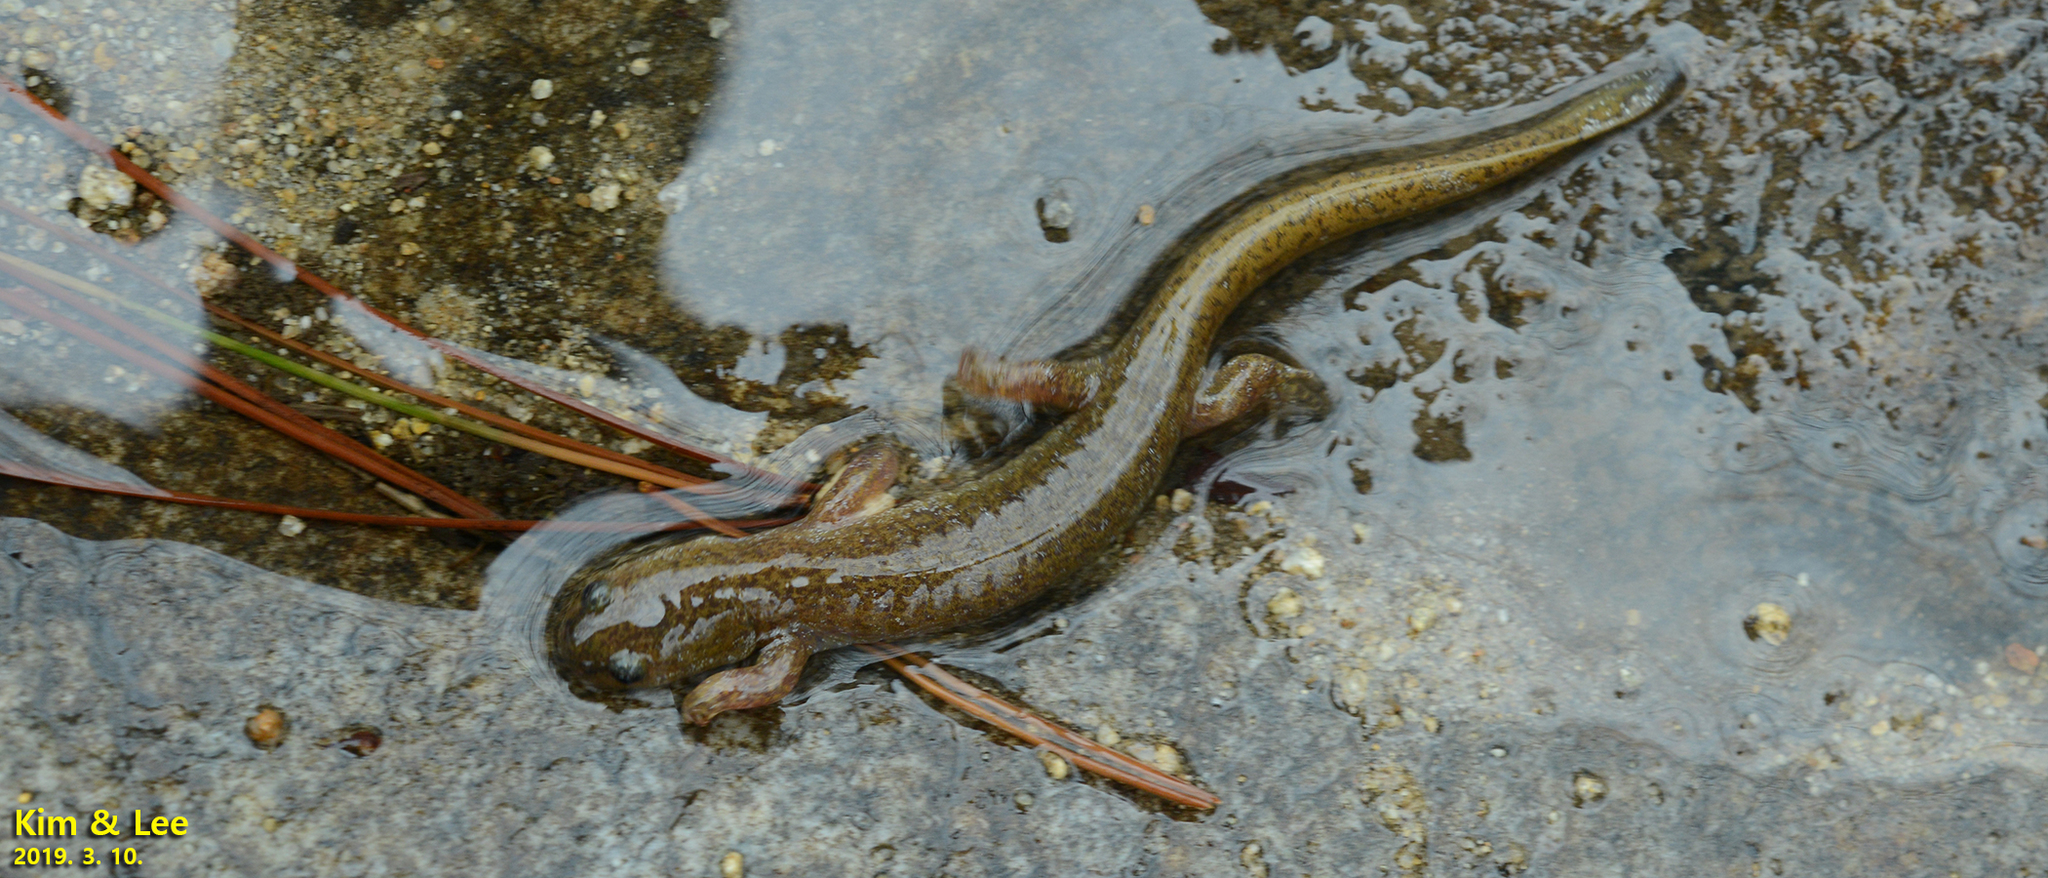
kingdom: Animalia
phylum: Chordata
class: Amphibia
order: Caudata
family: Hynobiidae
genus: Hynobius
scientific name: Hynobius unisacculus
